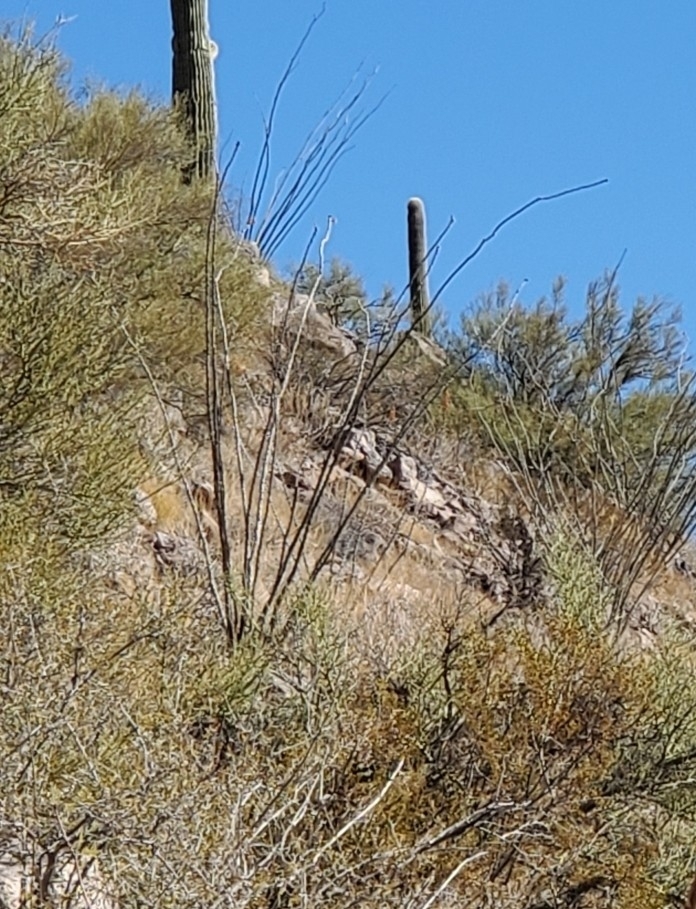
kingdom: Plantae
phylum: Tracheophyta
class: Magnoliopsida
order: Ericales
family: Fouquieriaceae
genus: Fouquieria
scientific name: Fouquieria splendens
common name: Vine-cactus
